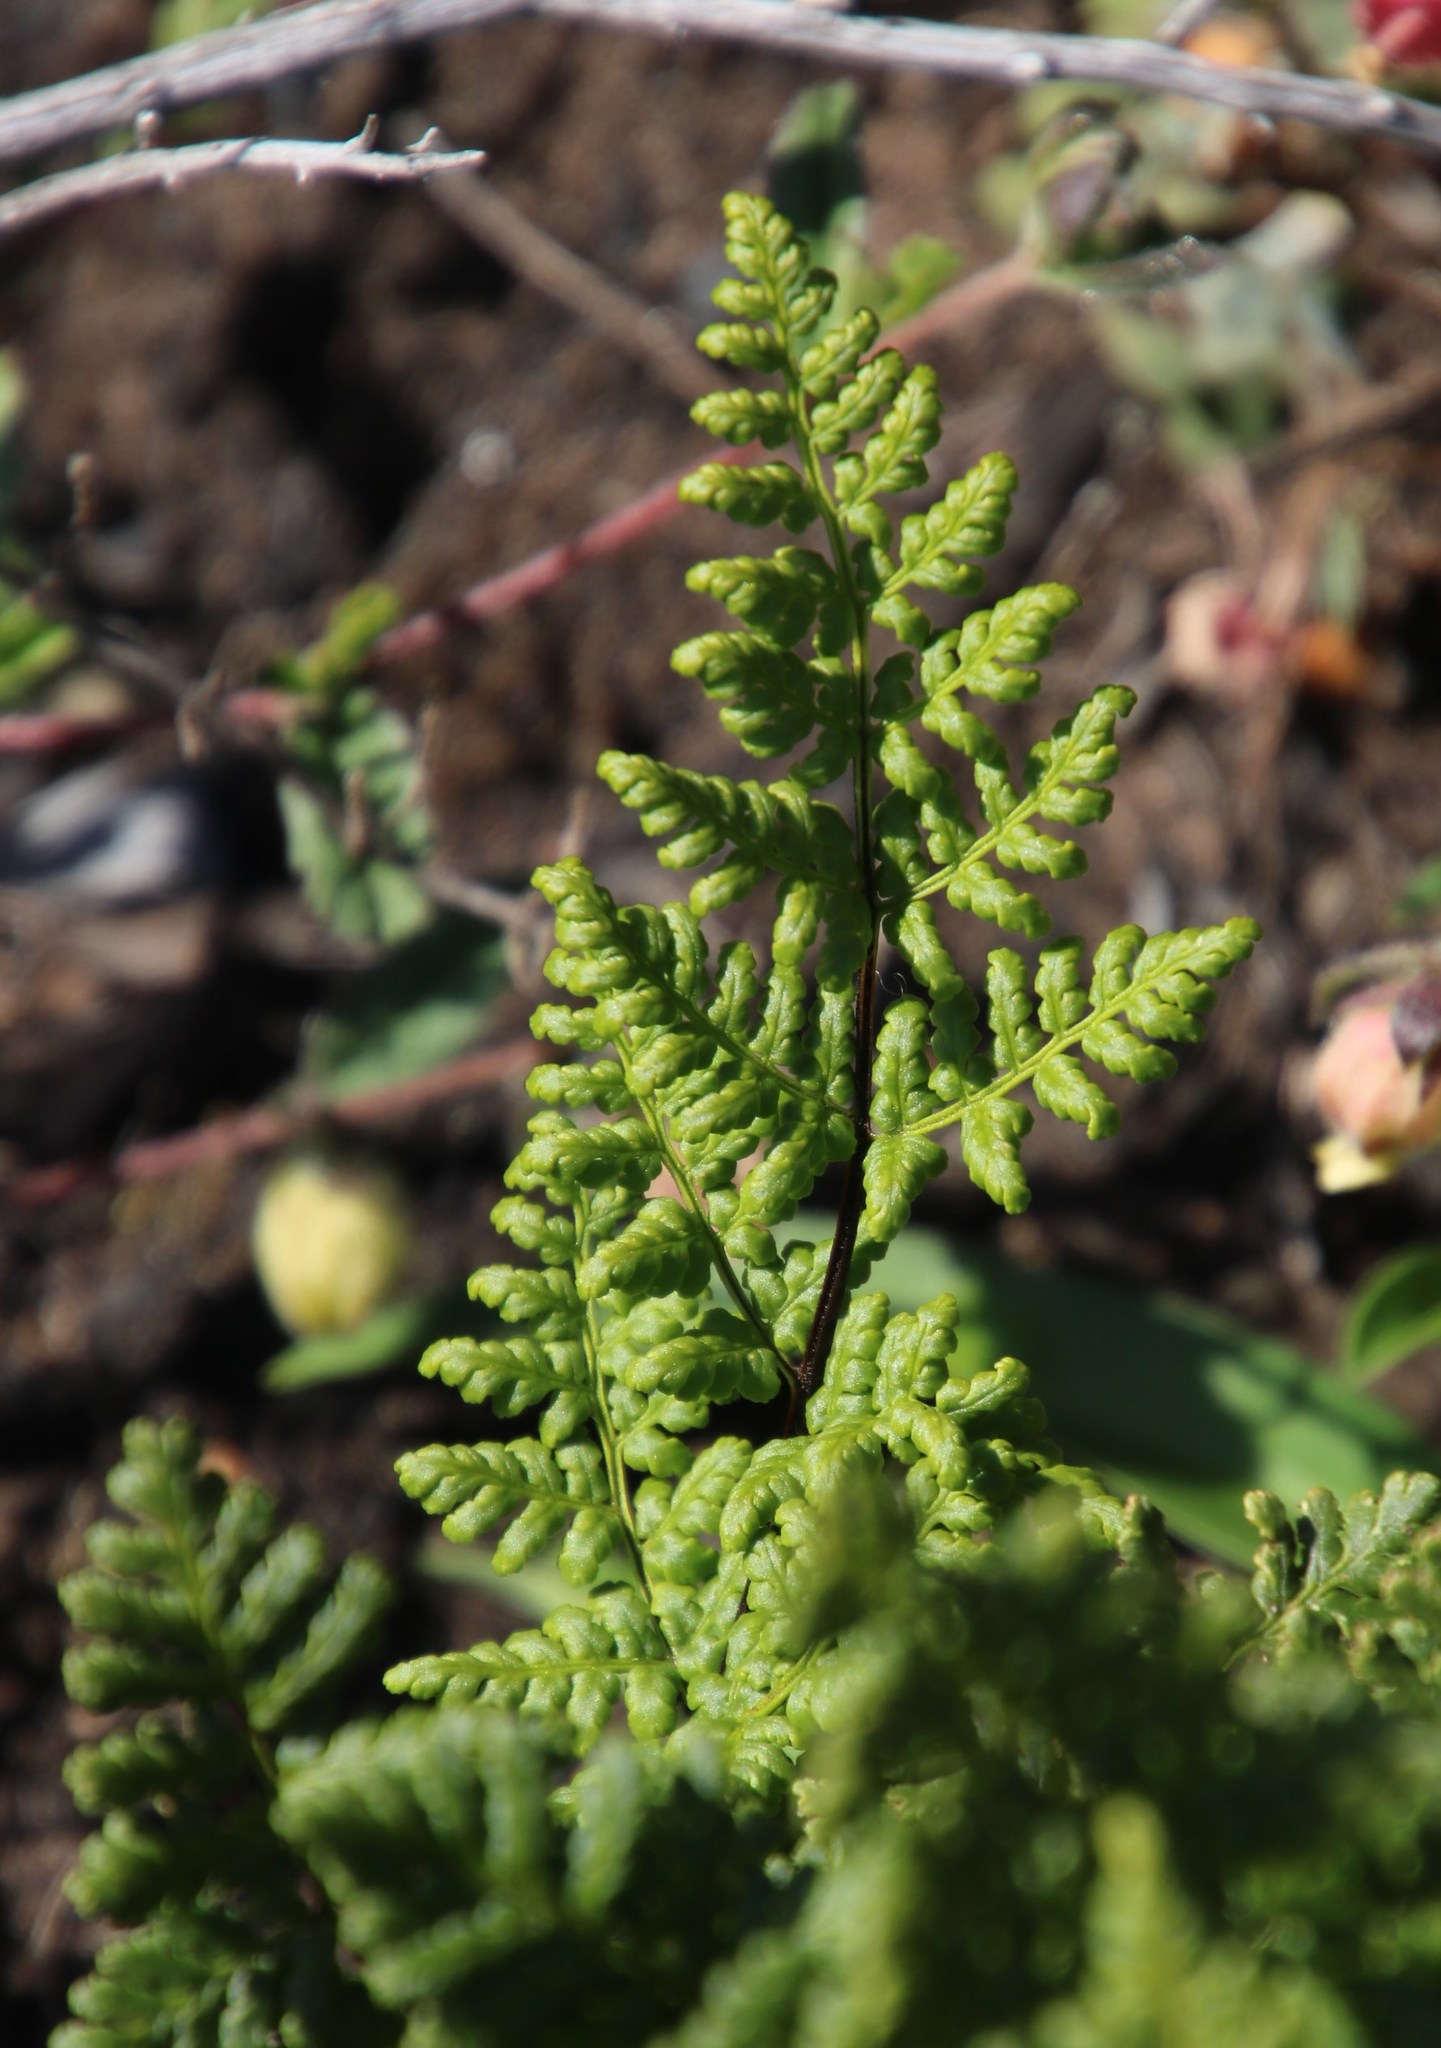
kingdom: Plantae
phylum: Tracheophyta
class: Polypodiopsida
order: Polypodiales
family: Pteridaceae
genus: Cheilanthes
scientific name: Cheilanthes multifida
